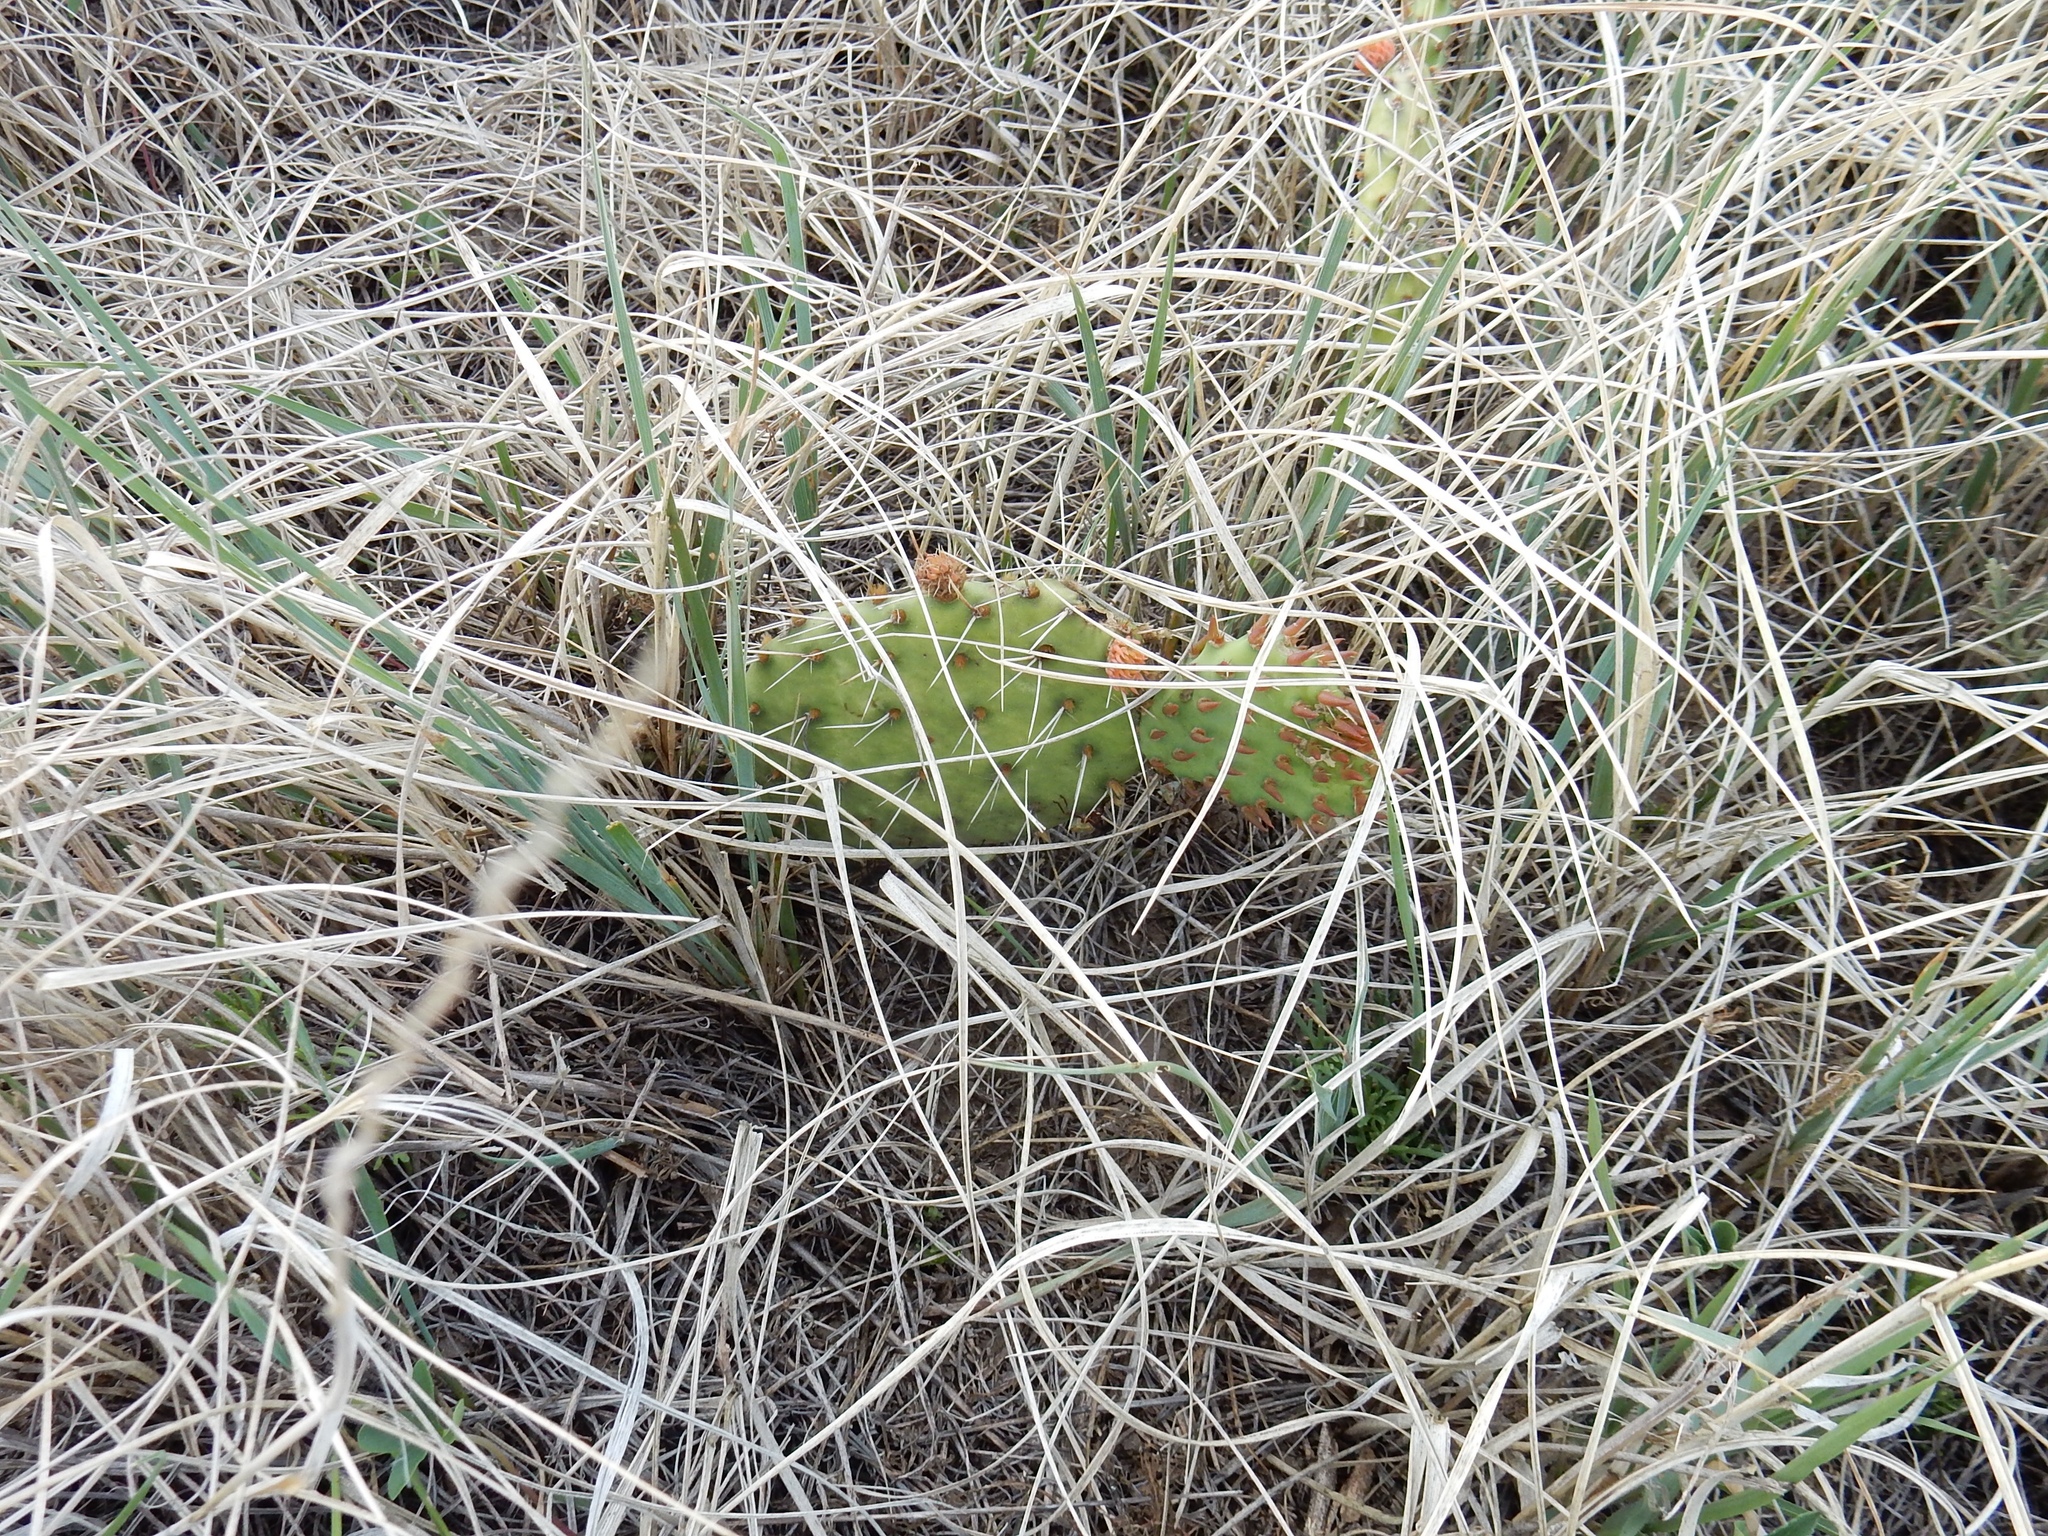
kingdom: Plantae
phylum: Tracheophyta
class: Magnoliopsida
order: Caryophyllales
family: Cactaceae
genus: Opuntia
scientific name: Opuntia polyacantha
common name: Plains prickly-pear
